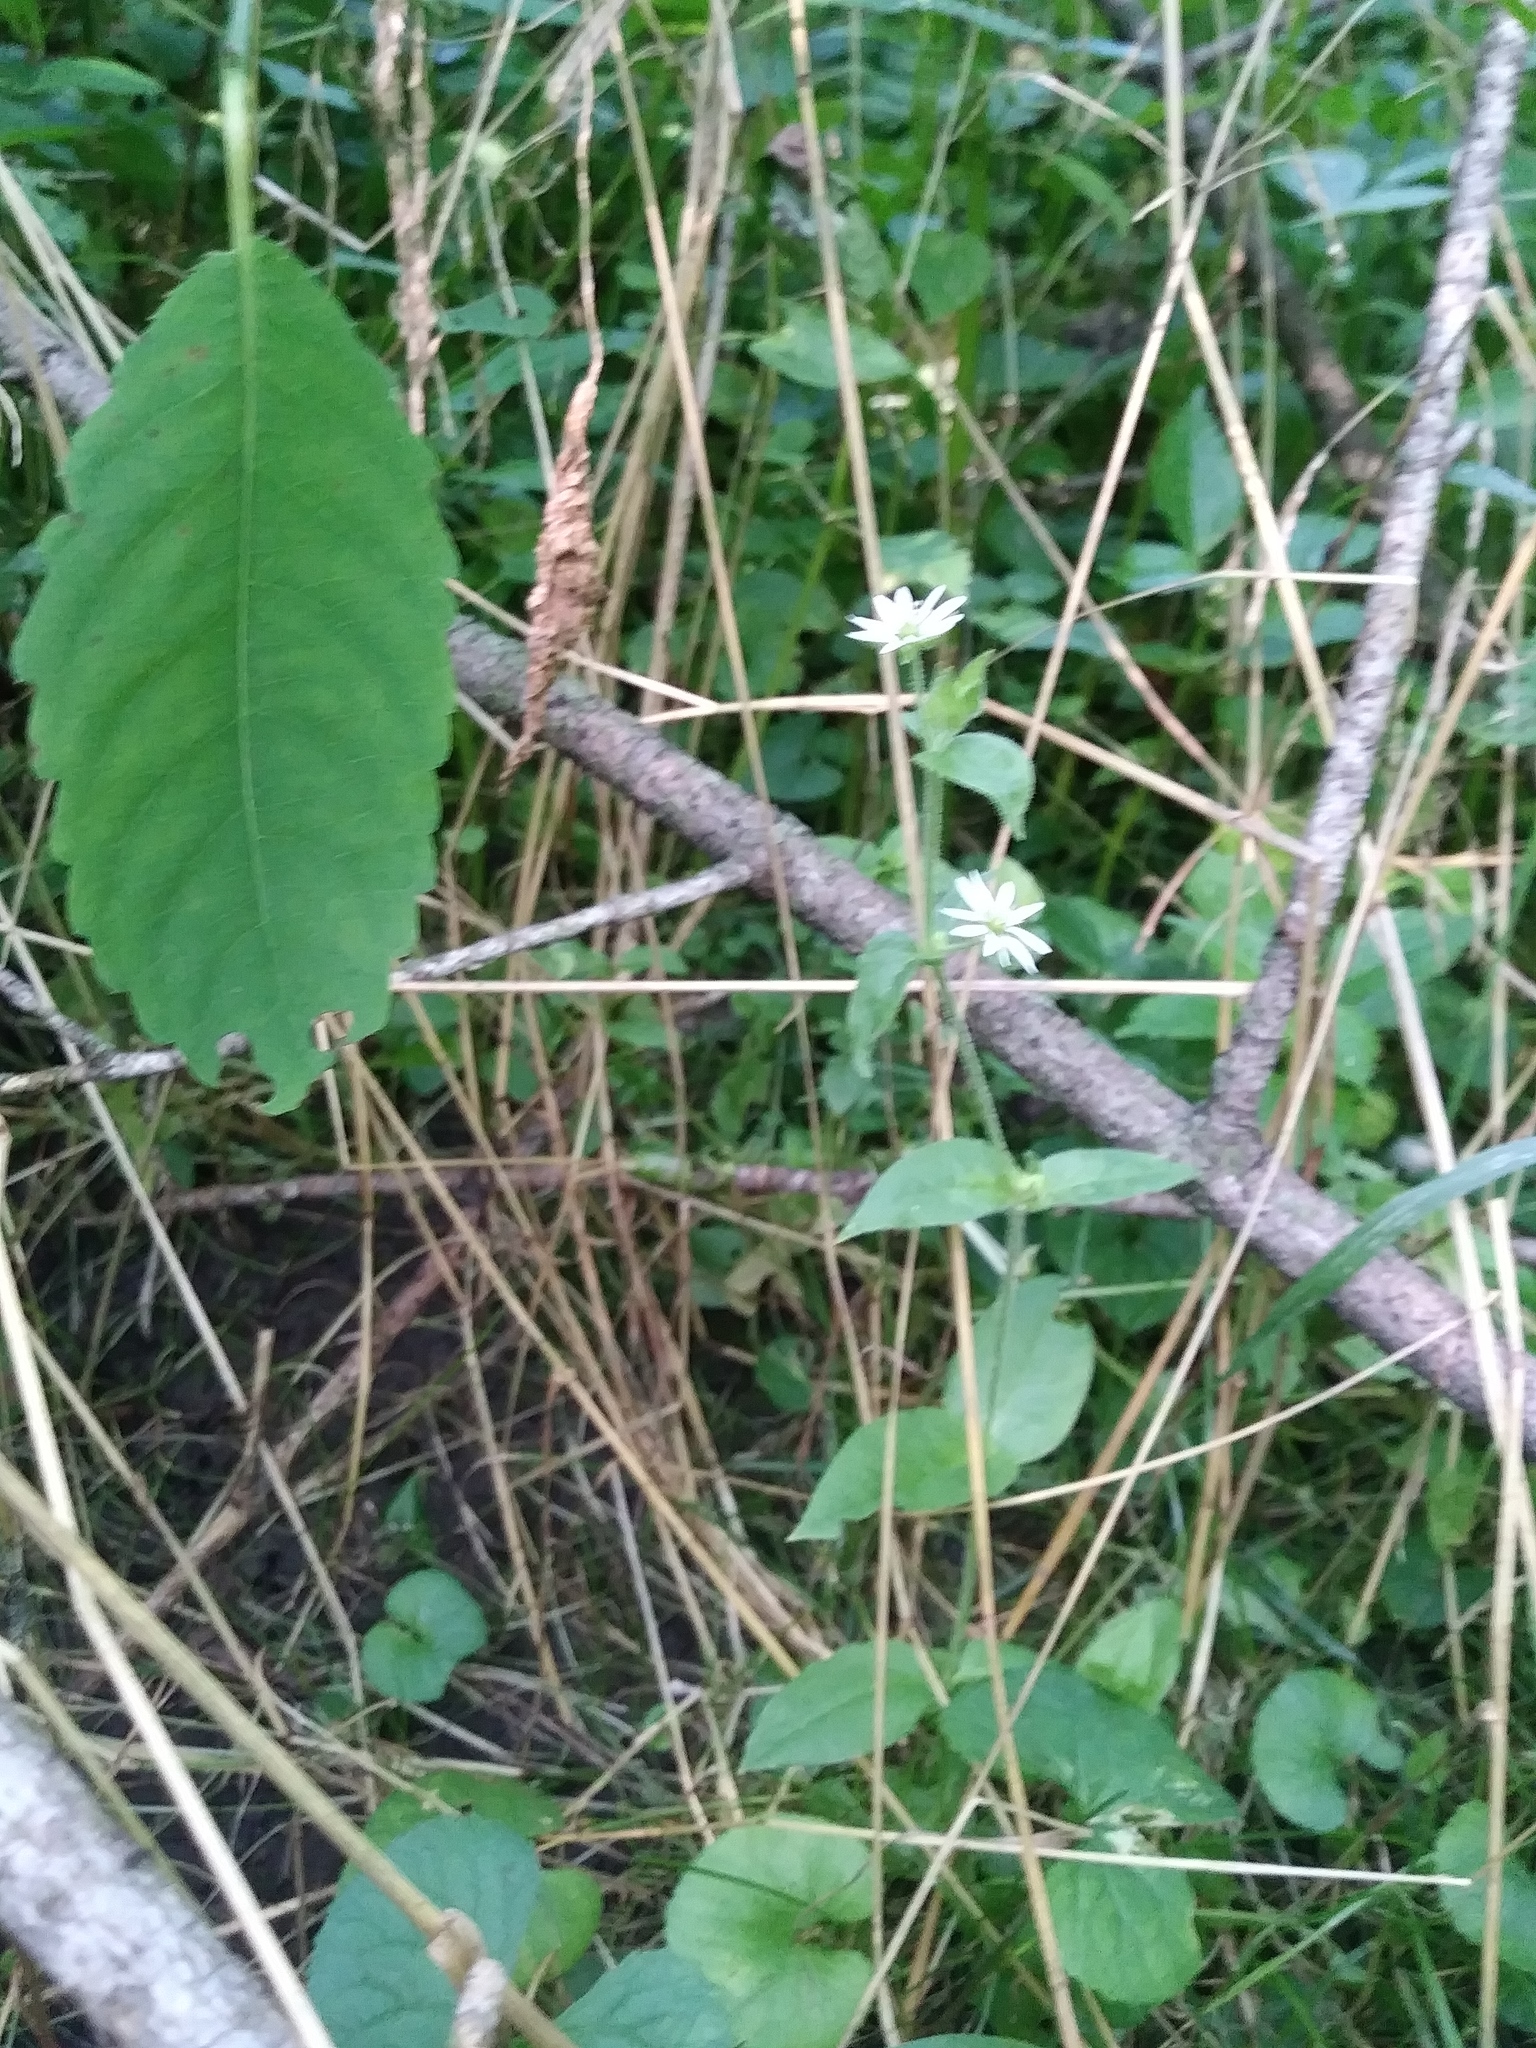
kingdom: Plantae
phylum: Tracheophyta
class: Magnoliopsida
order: Caryophyllales
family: Caryophyllaceae
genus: Stellaria
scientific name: Stellaria media
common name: Common chickweed
